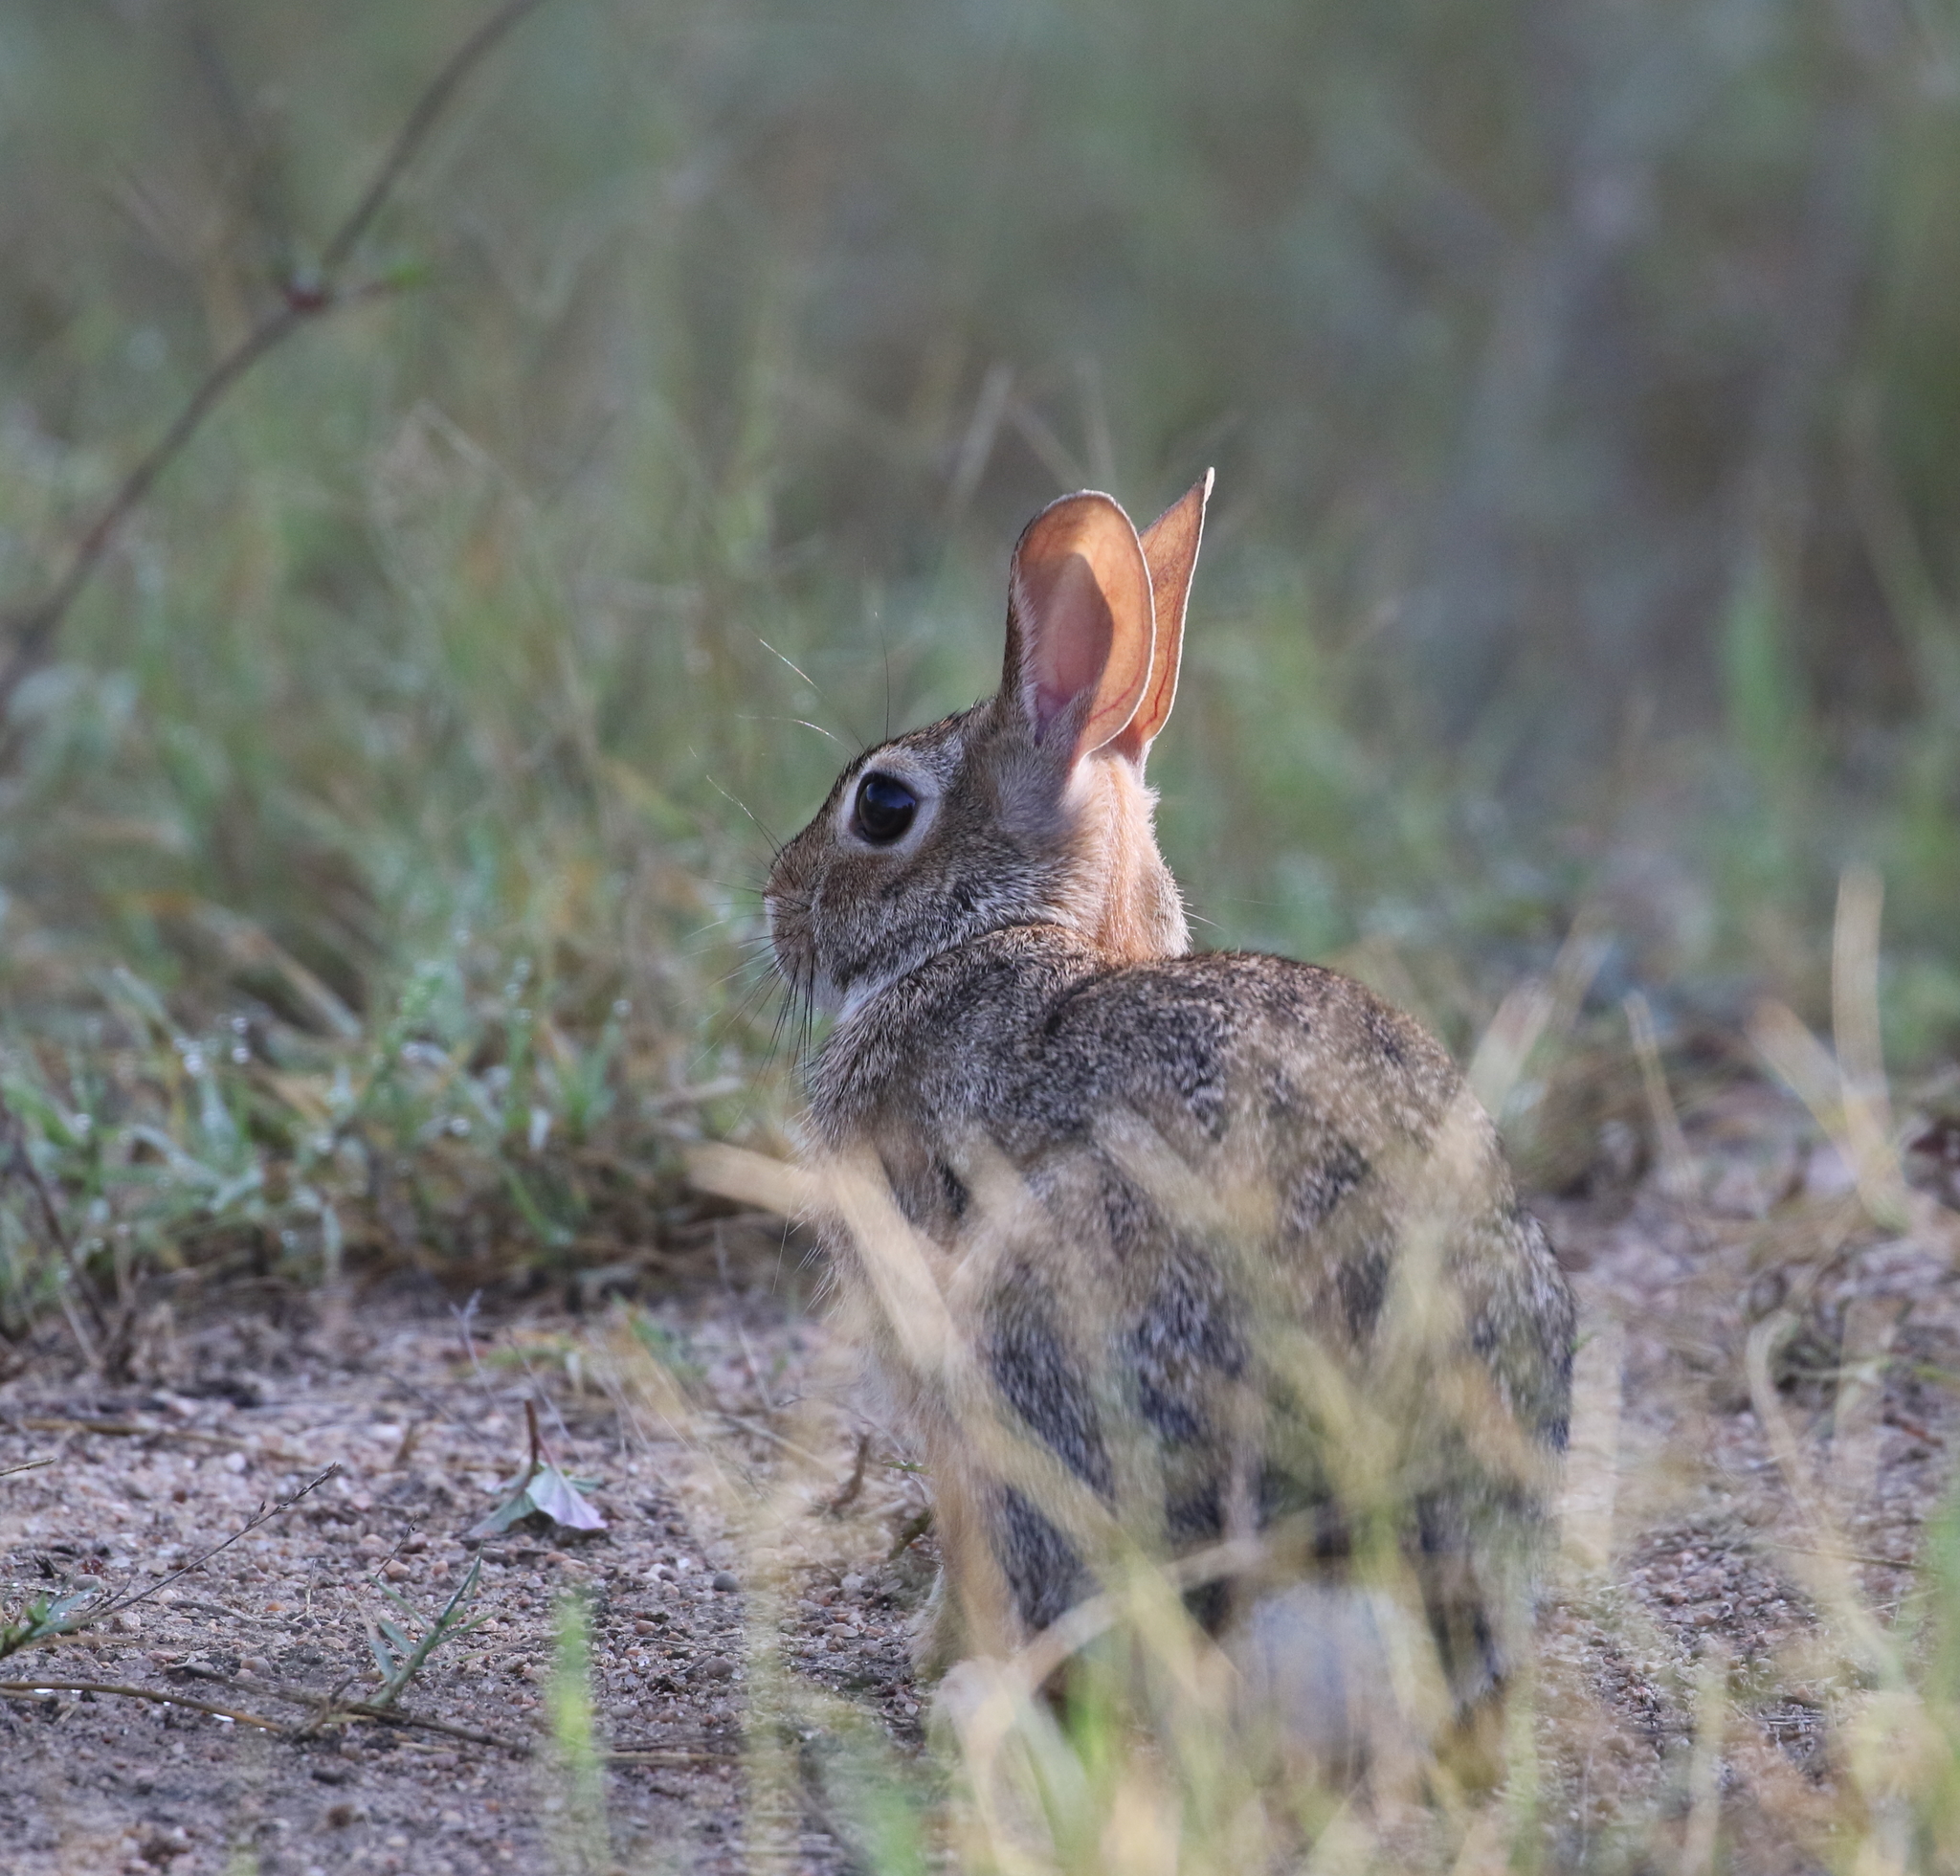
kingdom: Animalia
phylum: Chordata
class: Mammalia
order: Lagomorpha
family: Leporidae
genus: Sylvilagus
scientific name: Sylvilagus floridanus
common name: Eastern cottontail
